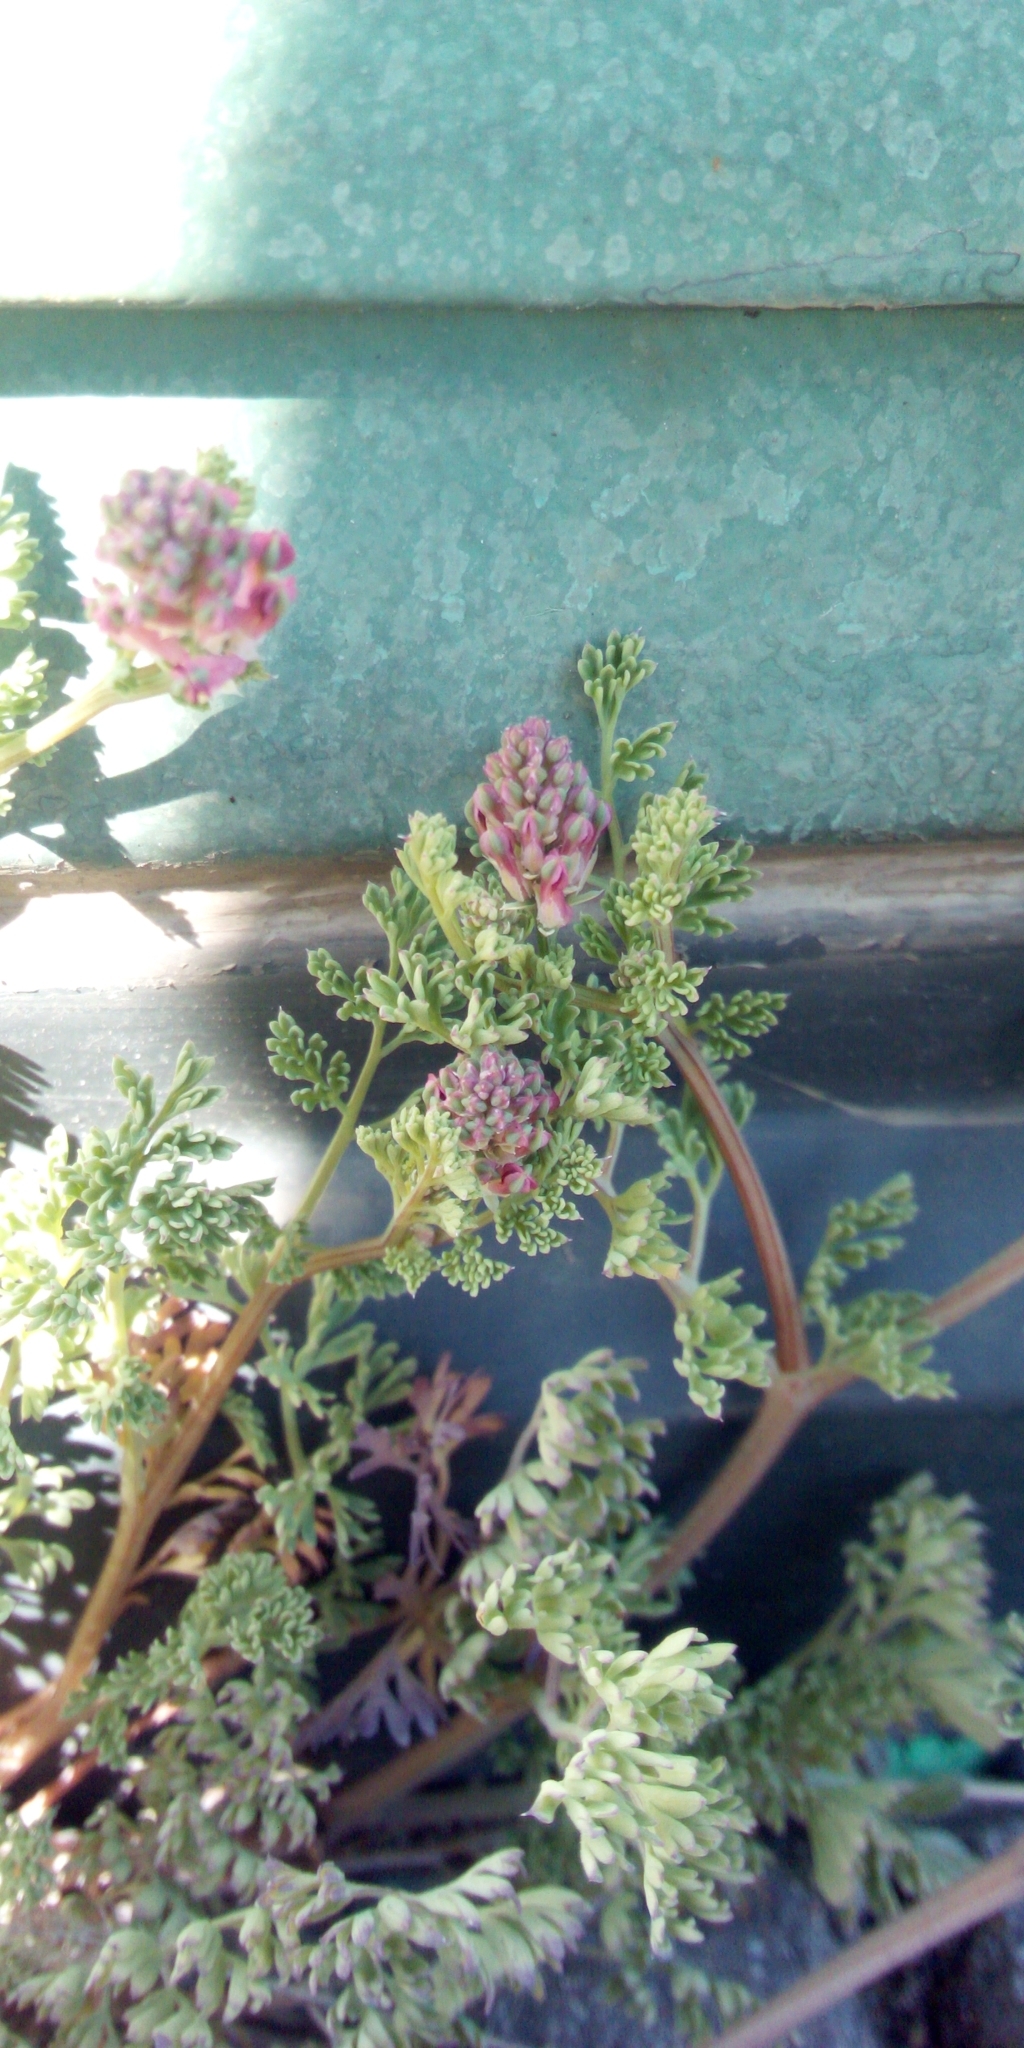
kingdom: Plantae
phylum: Tracheophyta
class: Magnoliopsida
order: Ranunculales
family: Papaveraceae
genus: Fumaria
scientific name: Fumaria officinalis
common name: Common fumitory
